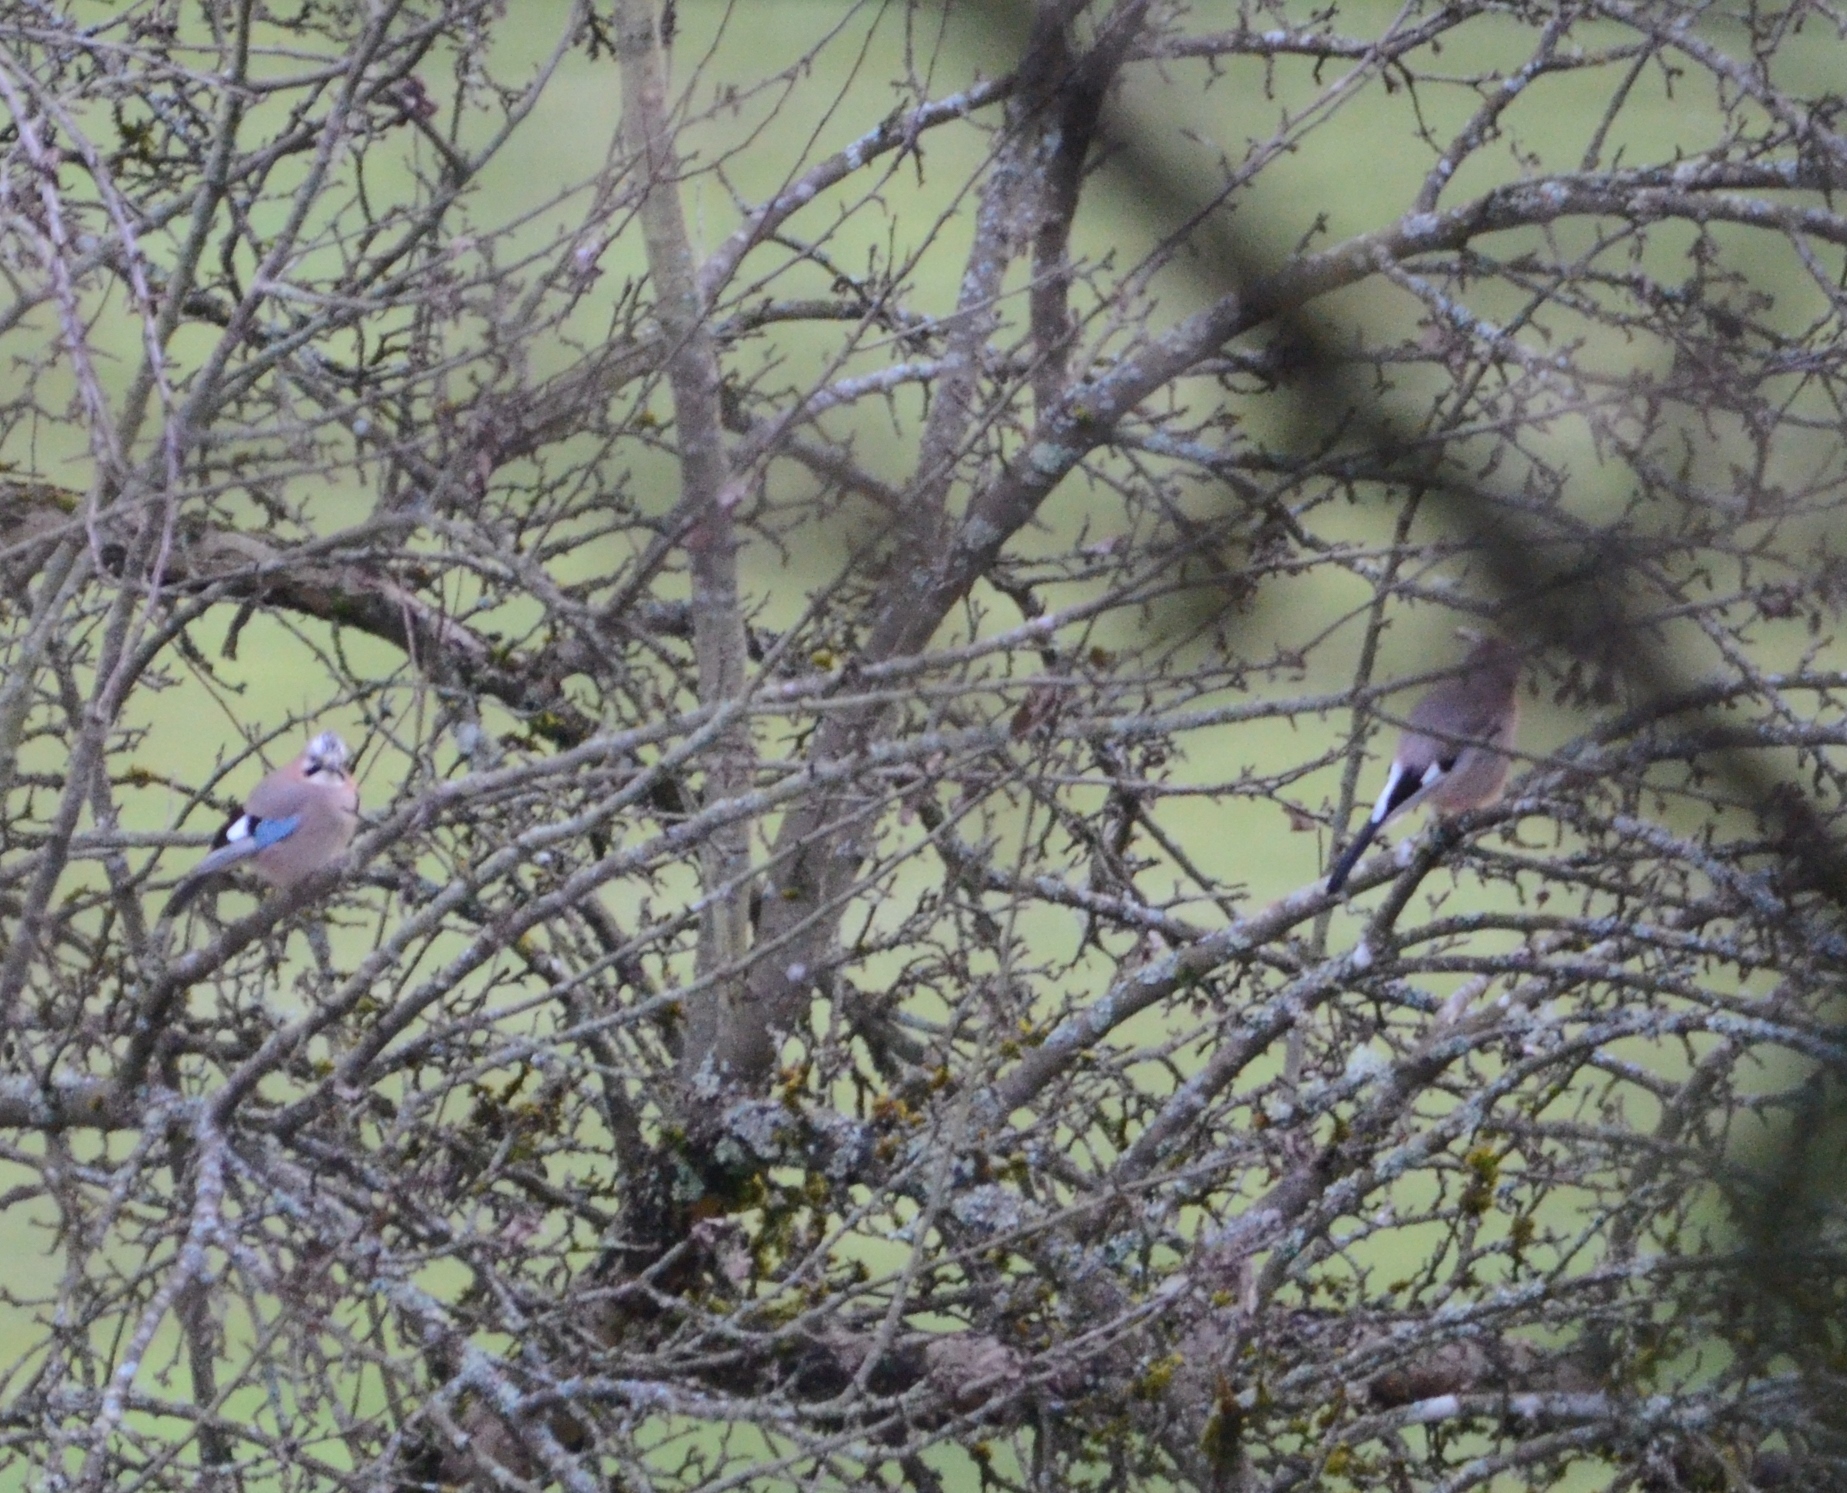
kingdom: Animalia
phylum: Chordata
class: Aves
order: Passeriformes
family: Corvidae
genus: Garrulus
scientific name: Garrulus glandarius
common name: Eurasian jay
